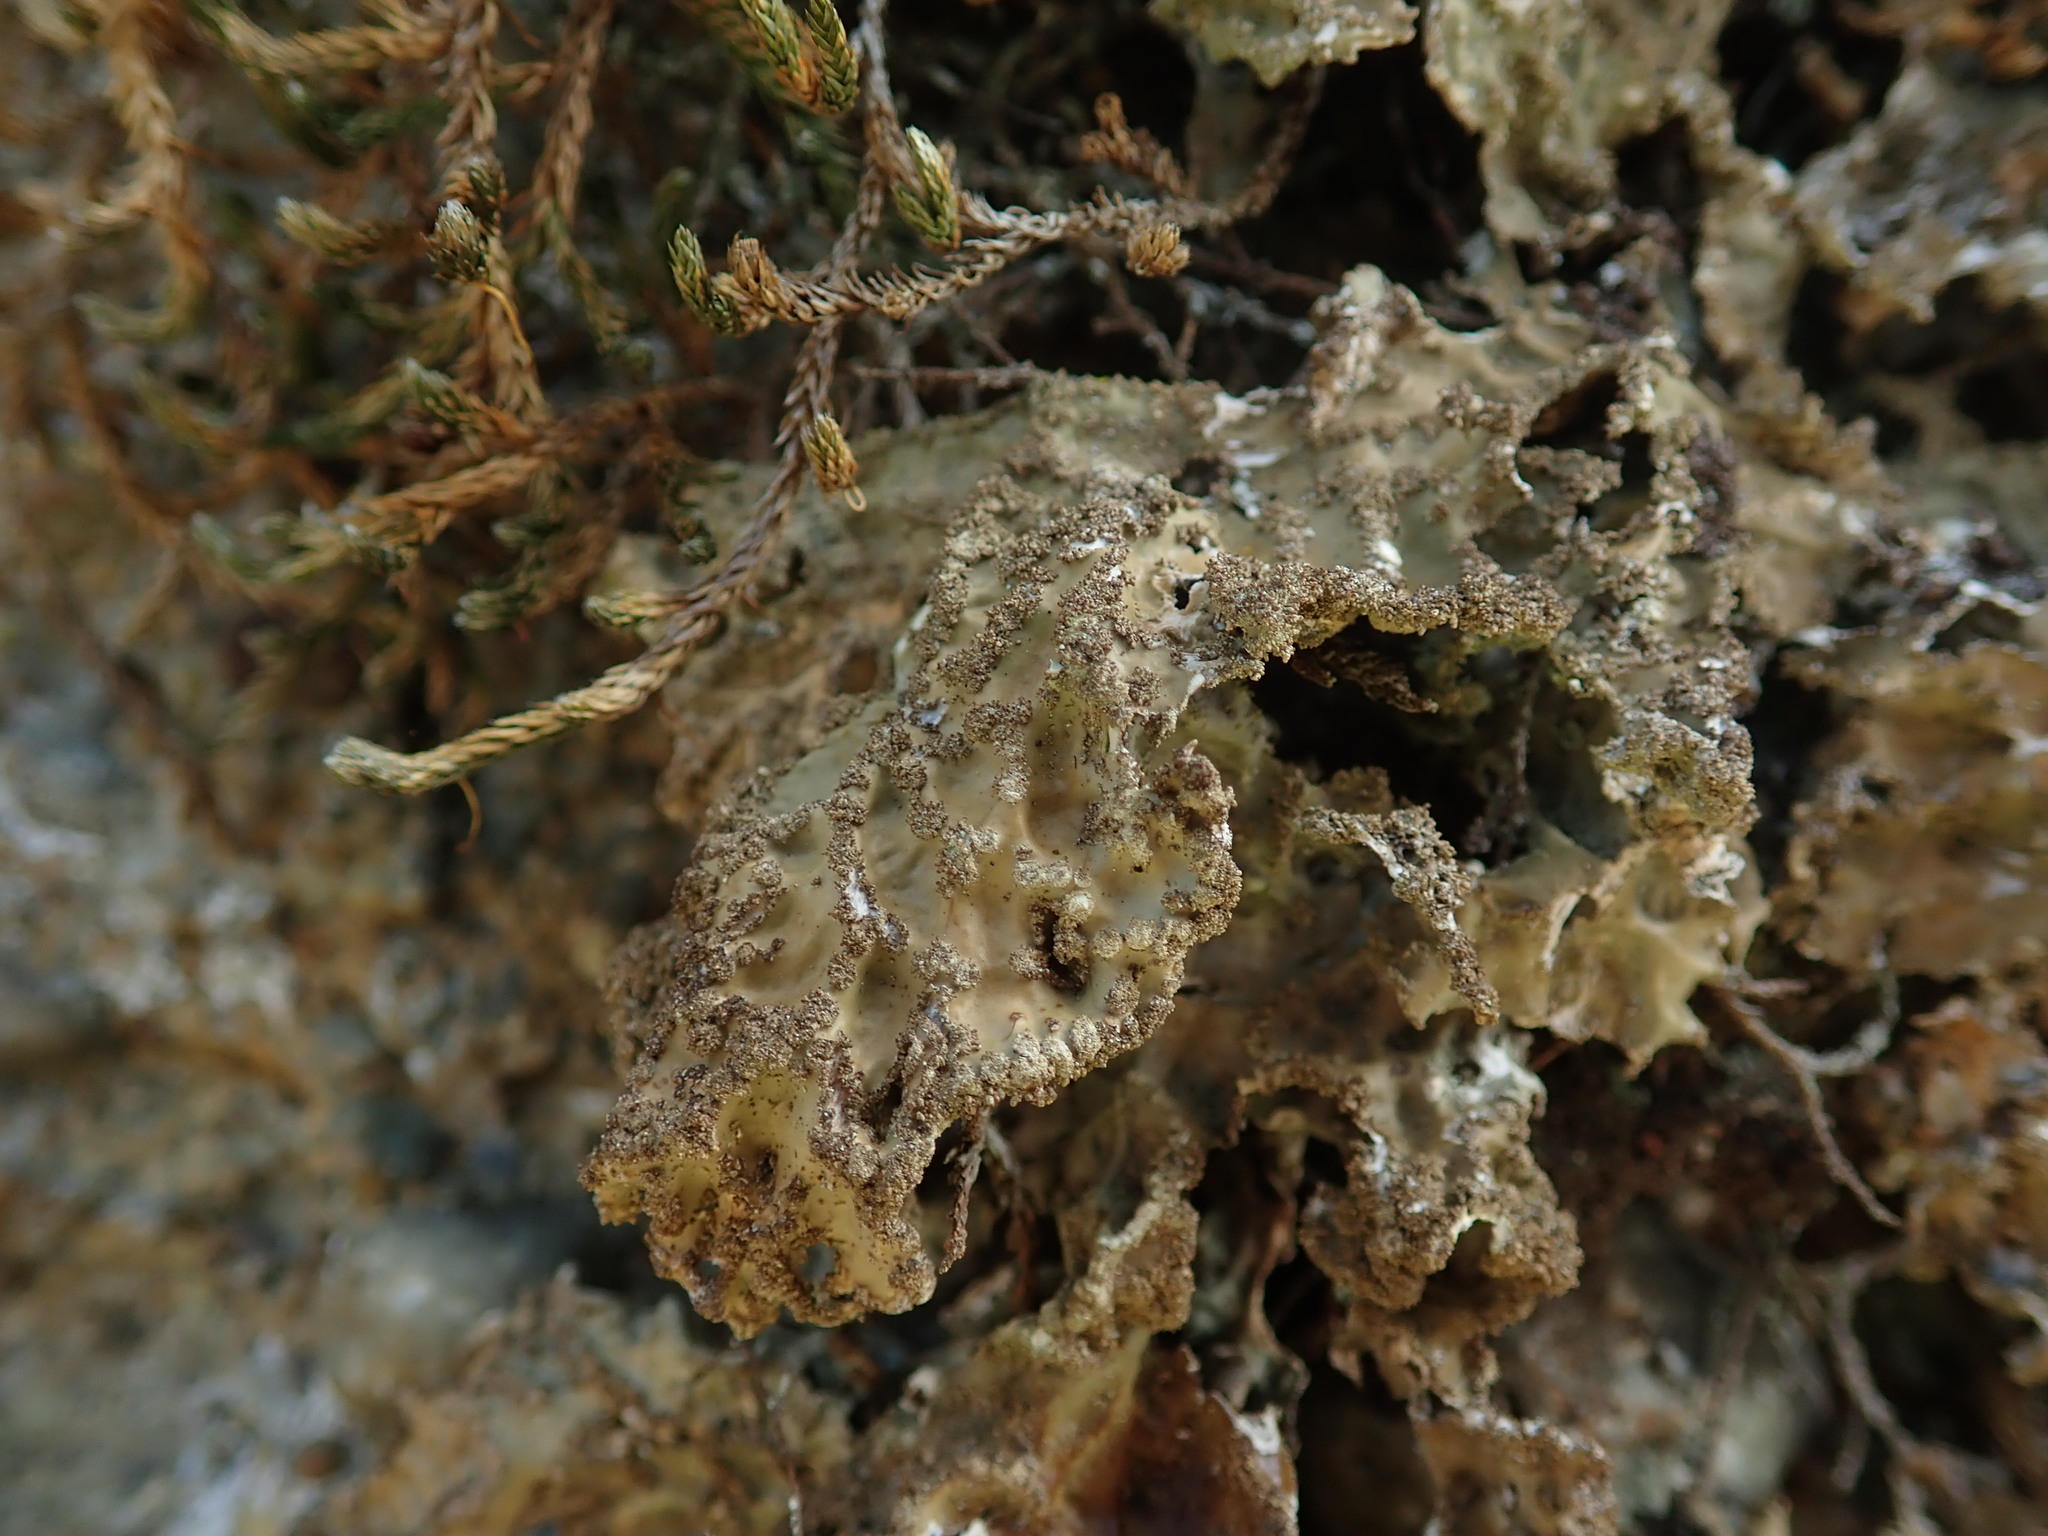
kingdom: Fungi
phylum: Ascomycota
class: Lecanoromycetes
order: Peltigerales
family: Lobariaceae
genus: Lobaria
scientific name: Lobaria pulmonaria
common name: Lungwort
